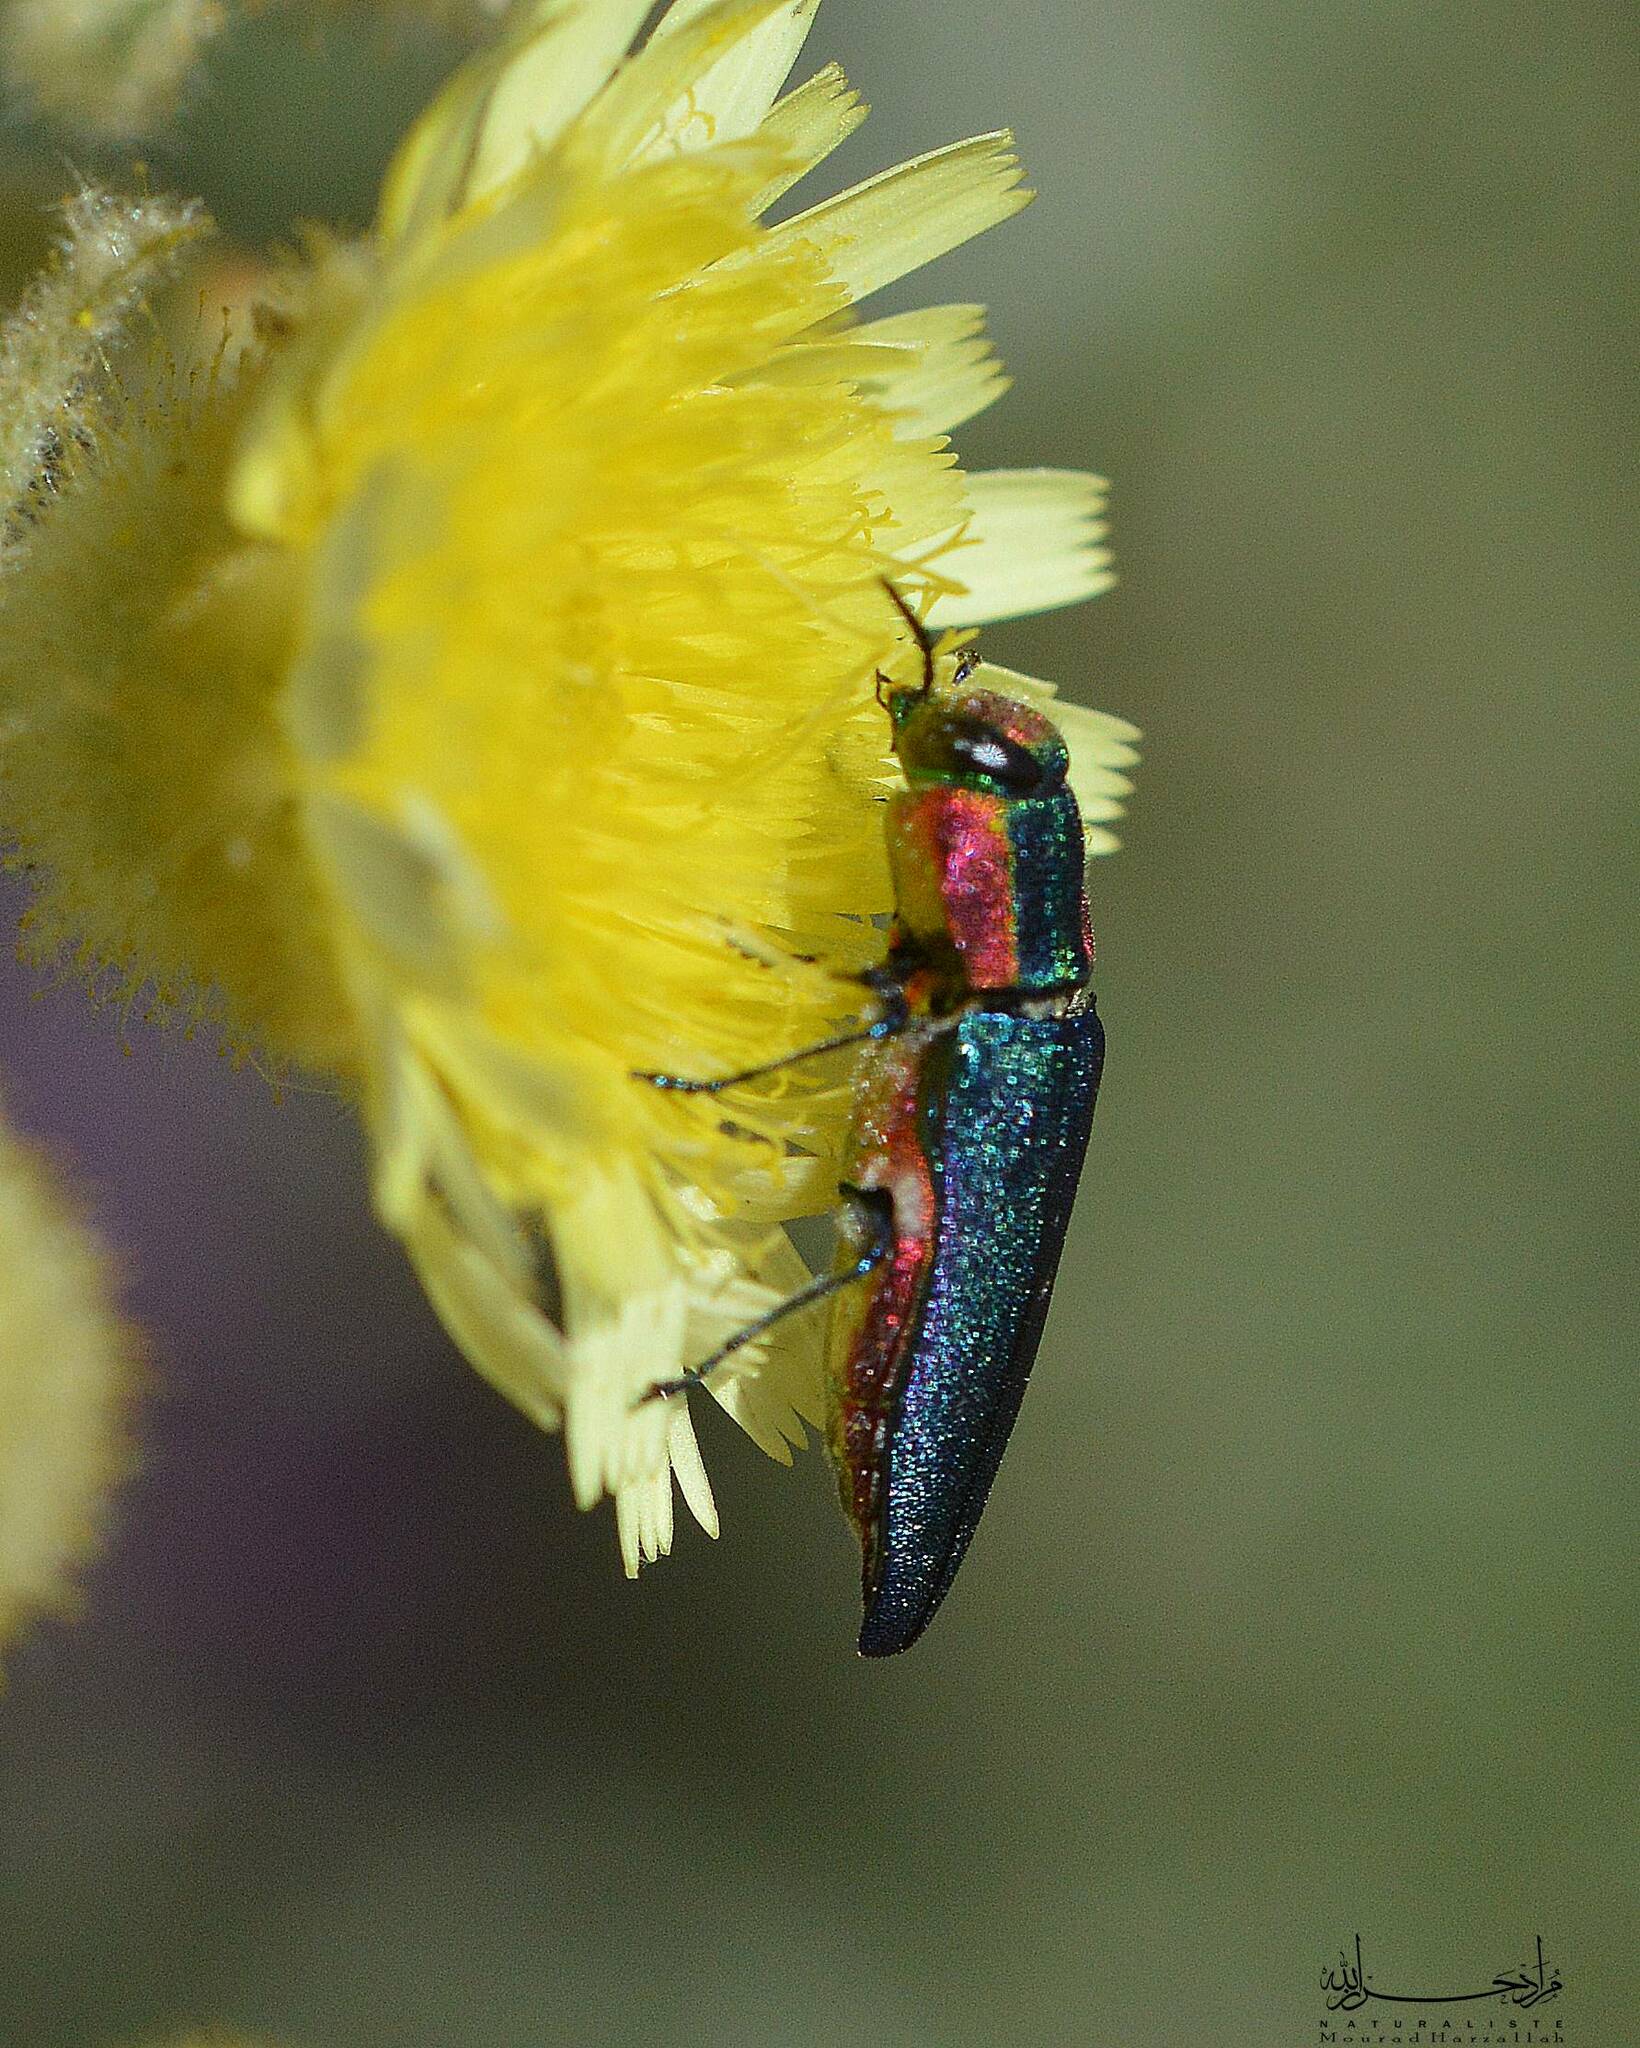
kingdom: Animalia
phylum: Arthropoda
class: Insecta
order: Coleoptera
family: Buprestidae
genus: Anthaxia
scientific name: Anthaxia hungarica
